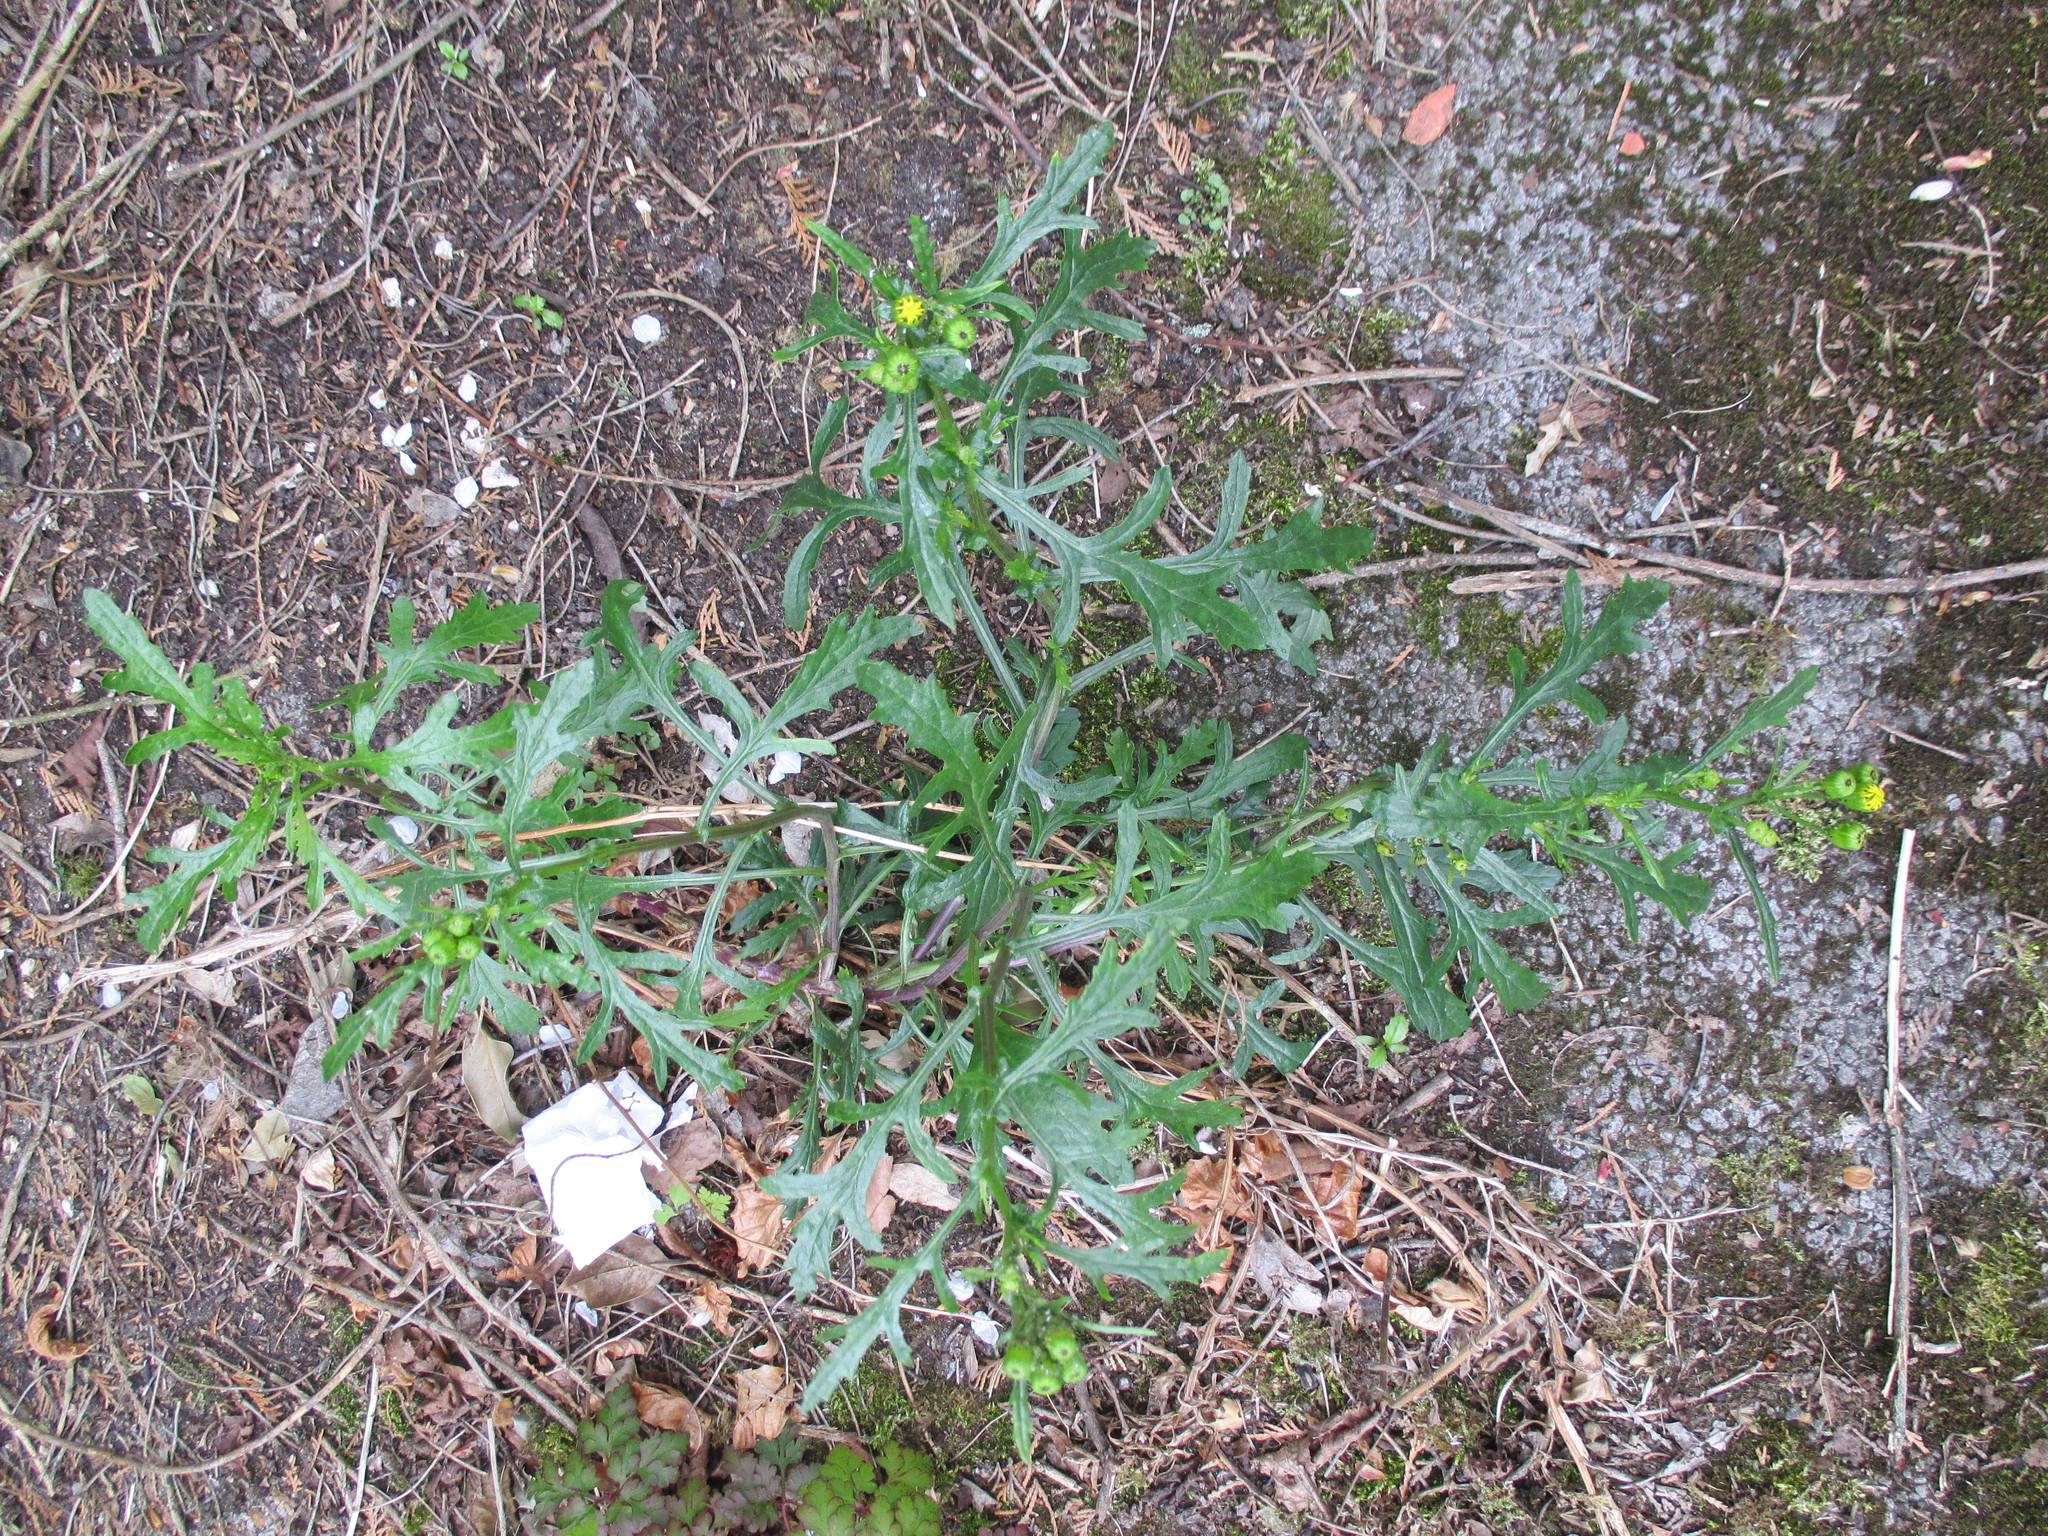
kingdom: Plantae
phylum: Tracheophyta
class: Magnoliopsida
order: Asterales
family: Asteraceae
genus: Senecio
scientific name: Senecio squalidus
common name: Oxford ragwort
